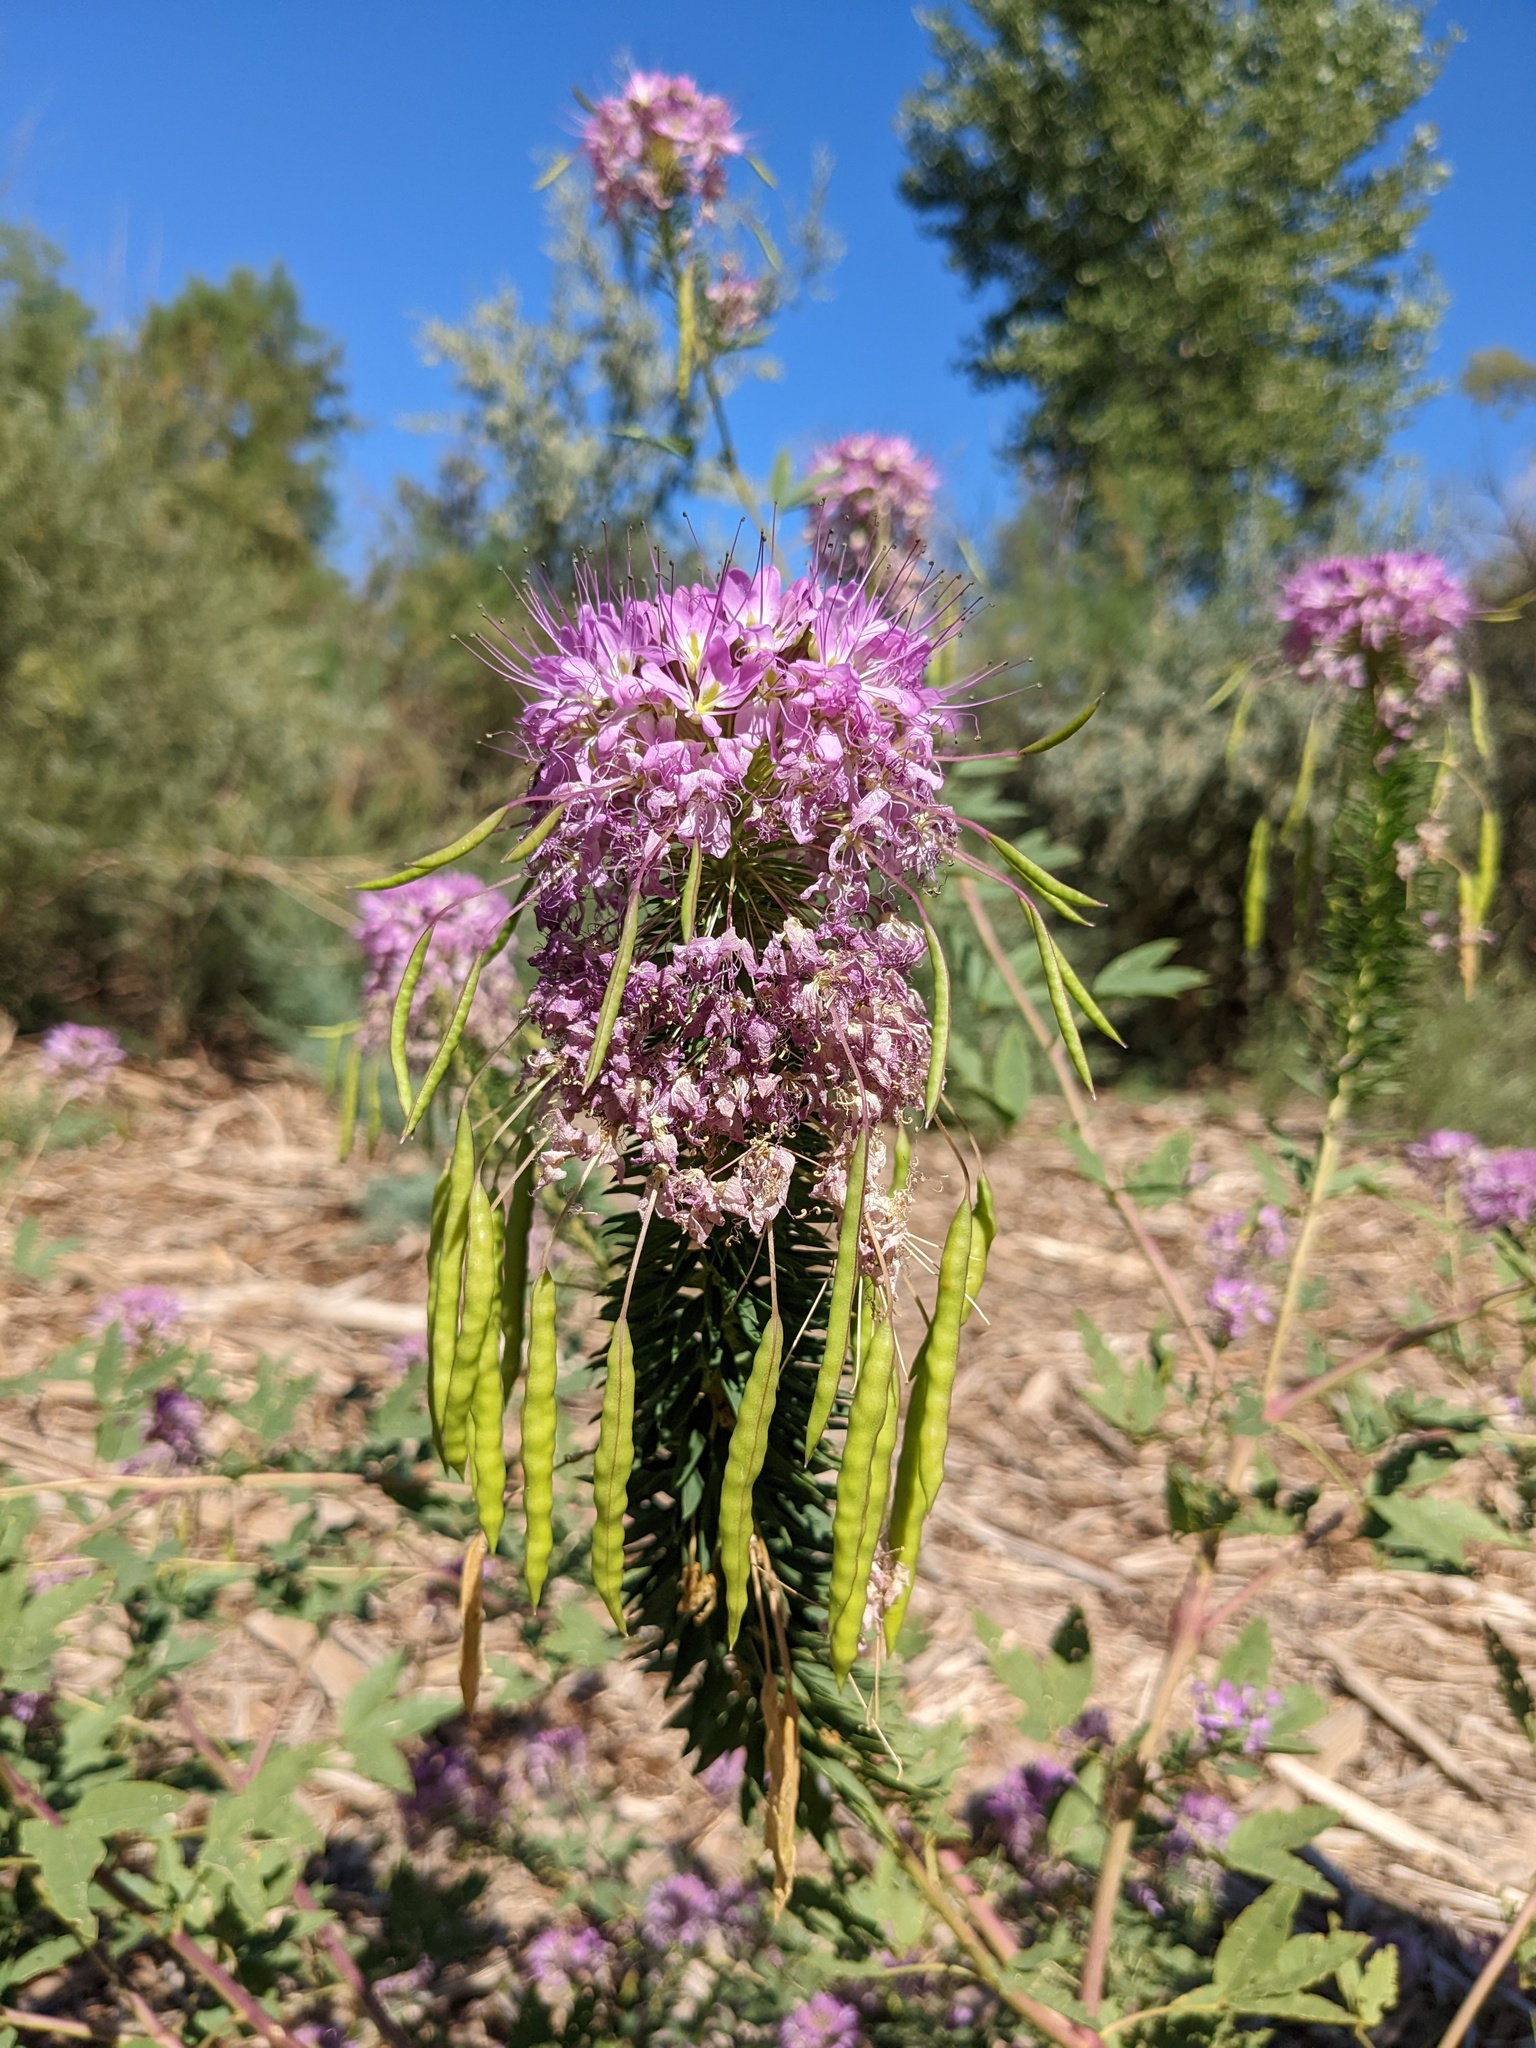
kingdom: Plantae
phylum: Tracheophyta
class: Magnoliopsida
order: Brassicales
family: Cleomaceae
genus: Cleomella
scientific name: Cleomella serrulata
